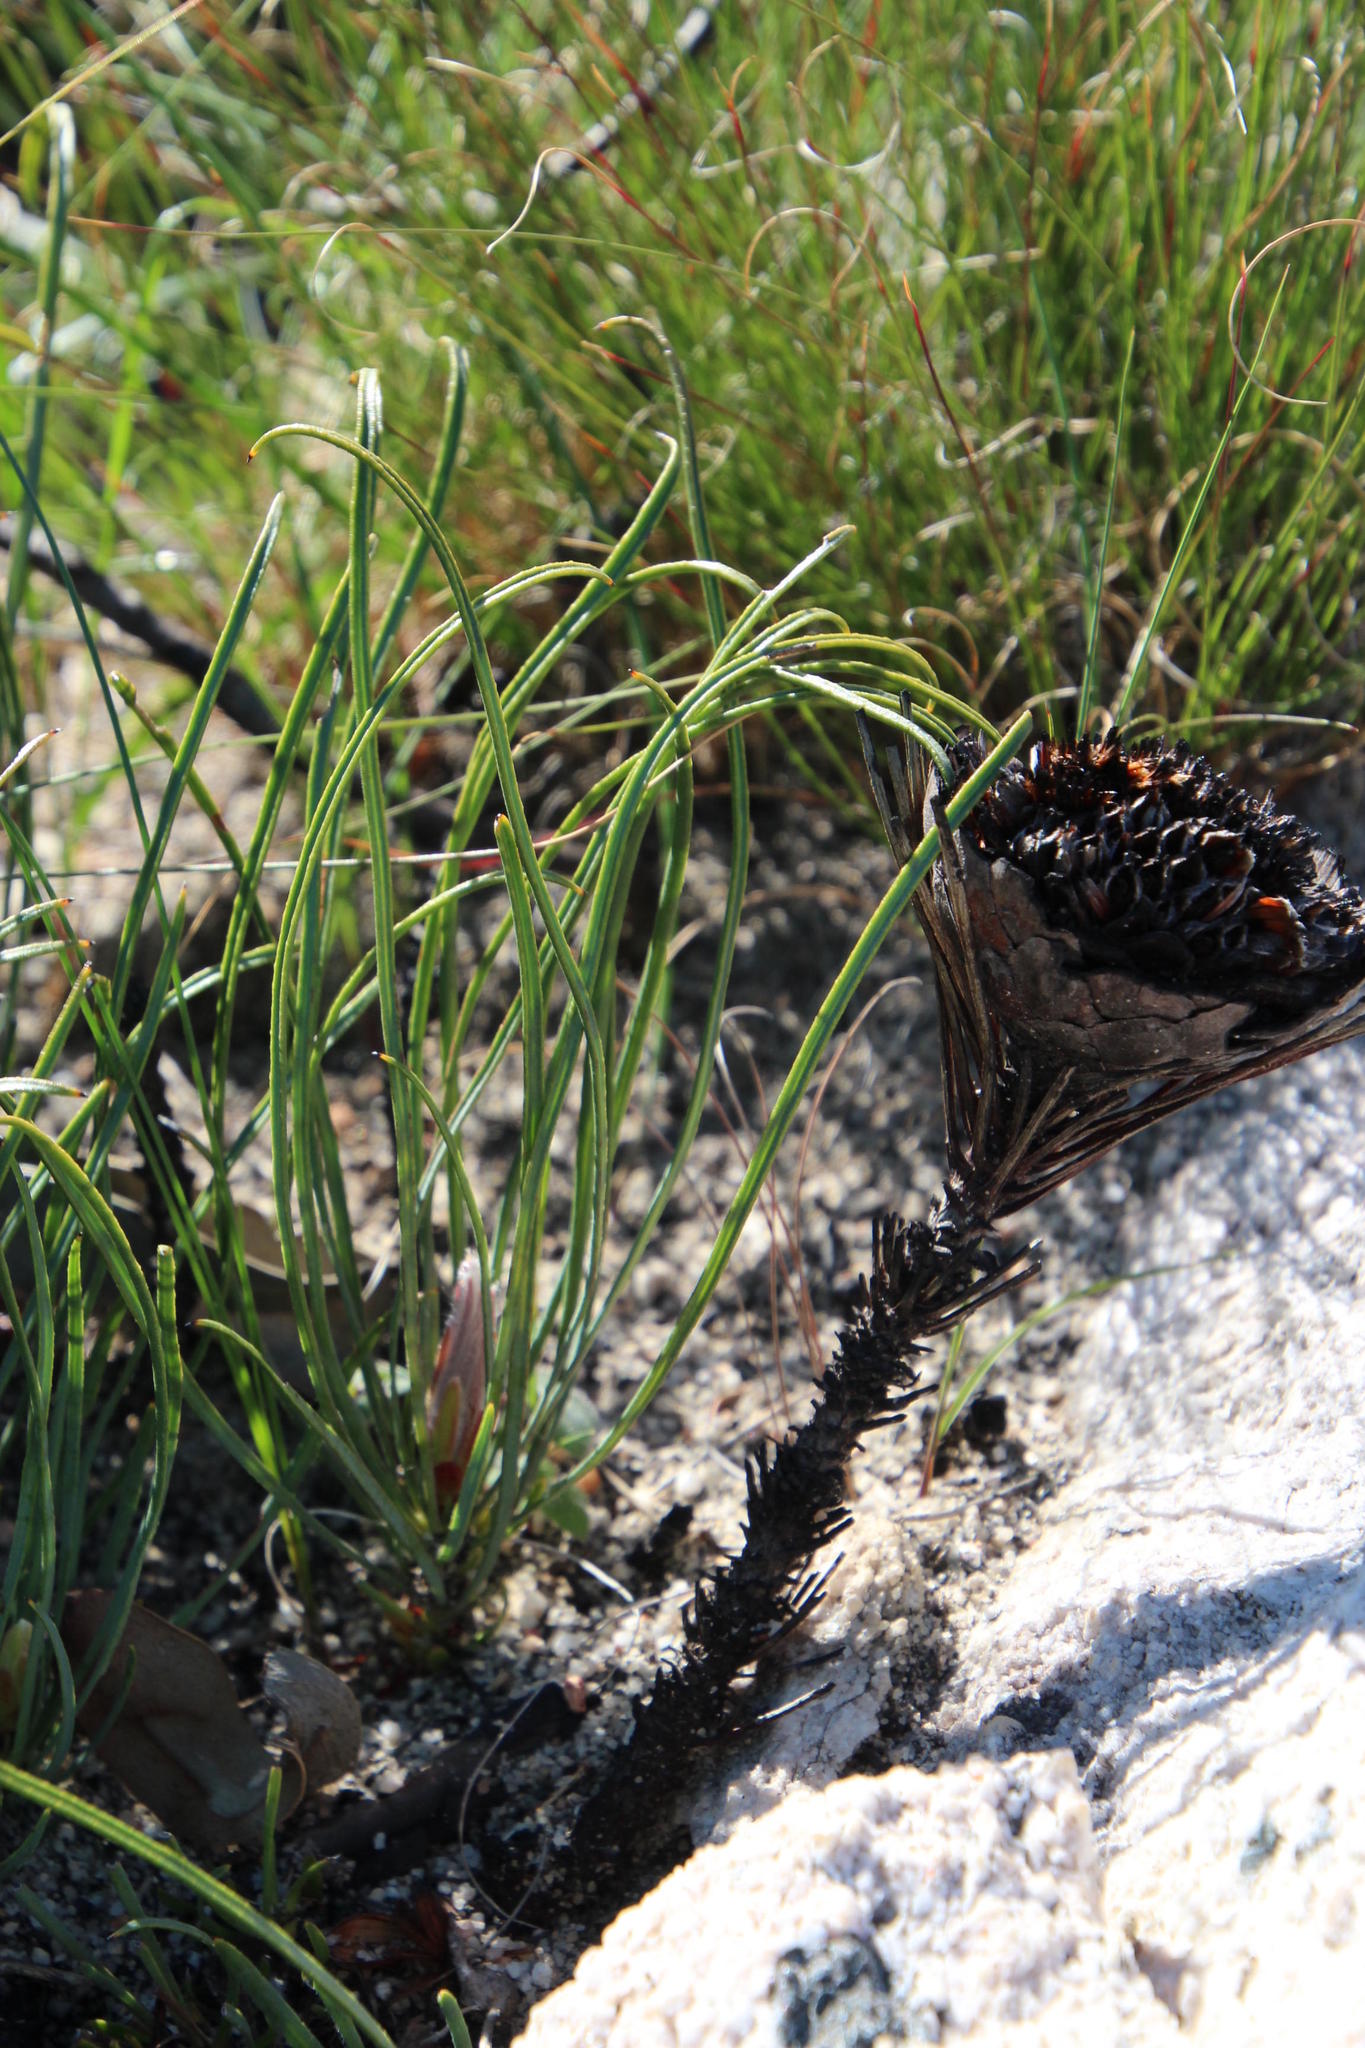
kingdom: Plantae
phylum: Tracheophyta
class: Magnoliopsida
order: Proteales
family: Proteaceae
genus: Protea
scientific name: Protea scorzonerifolia
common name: Channel-leaf sugarbush
